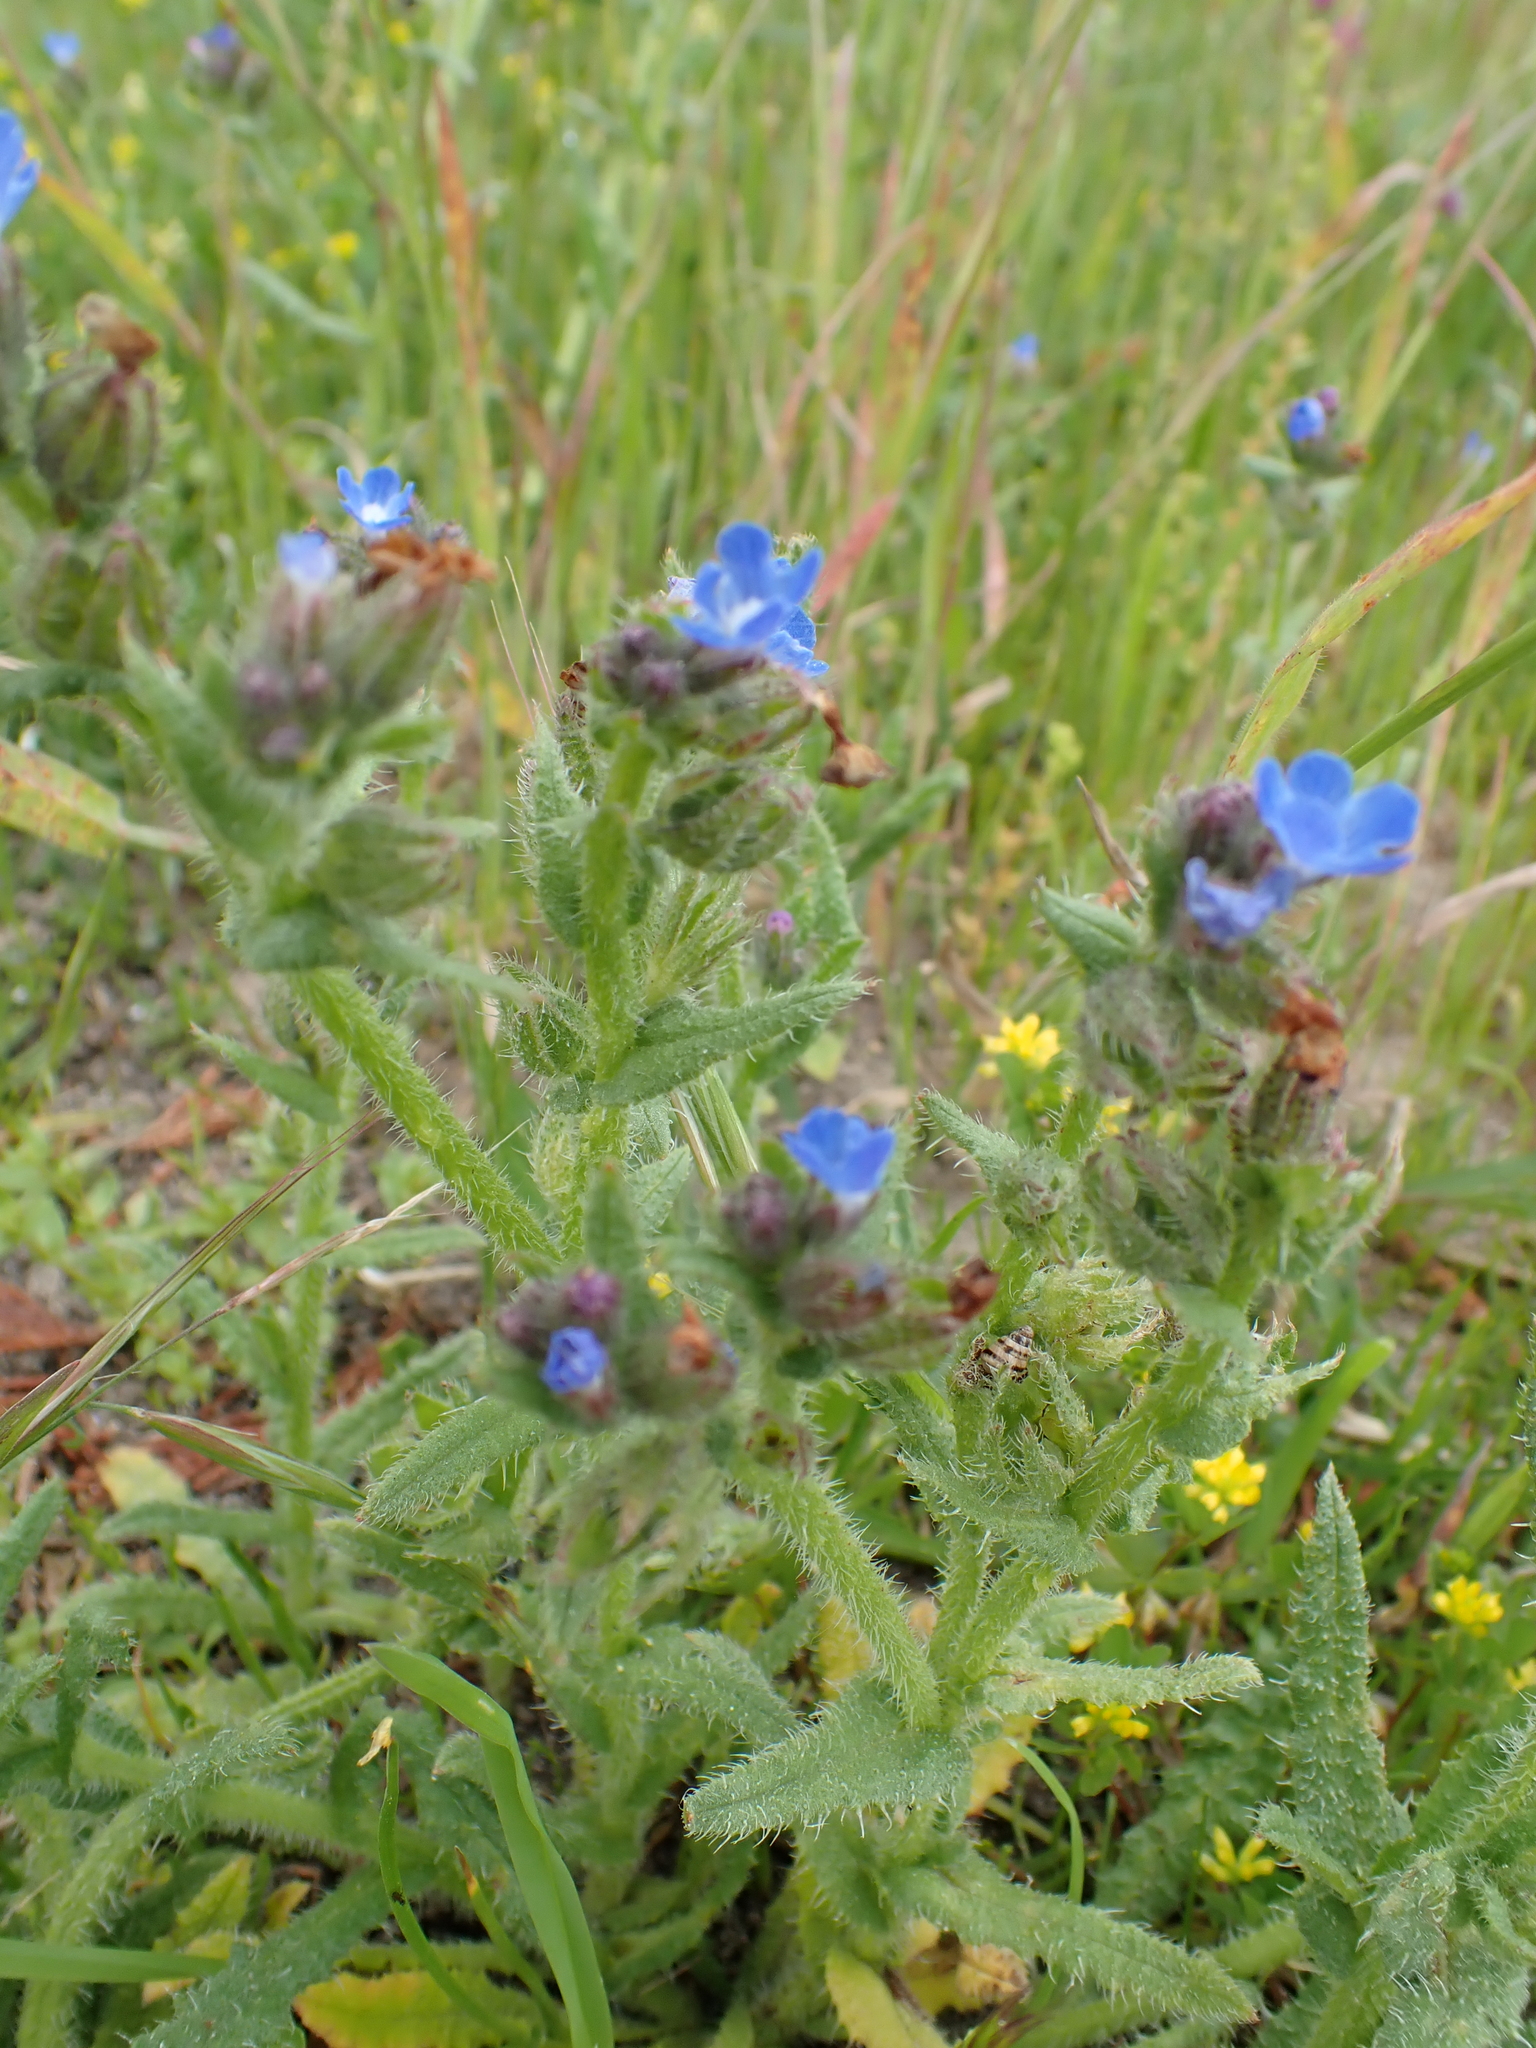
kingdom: Plantae
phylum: Tracheophyta
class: Magnoliopsida
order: Boraginales
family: Boraginaceae
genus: Lycopsis
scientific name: Lycopsis arvensis
